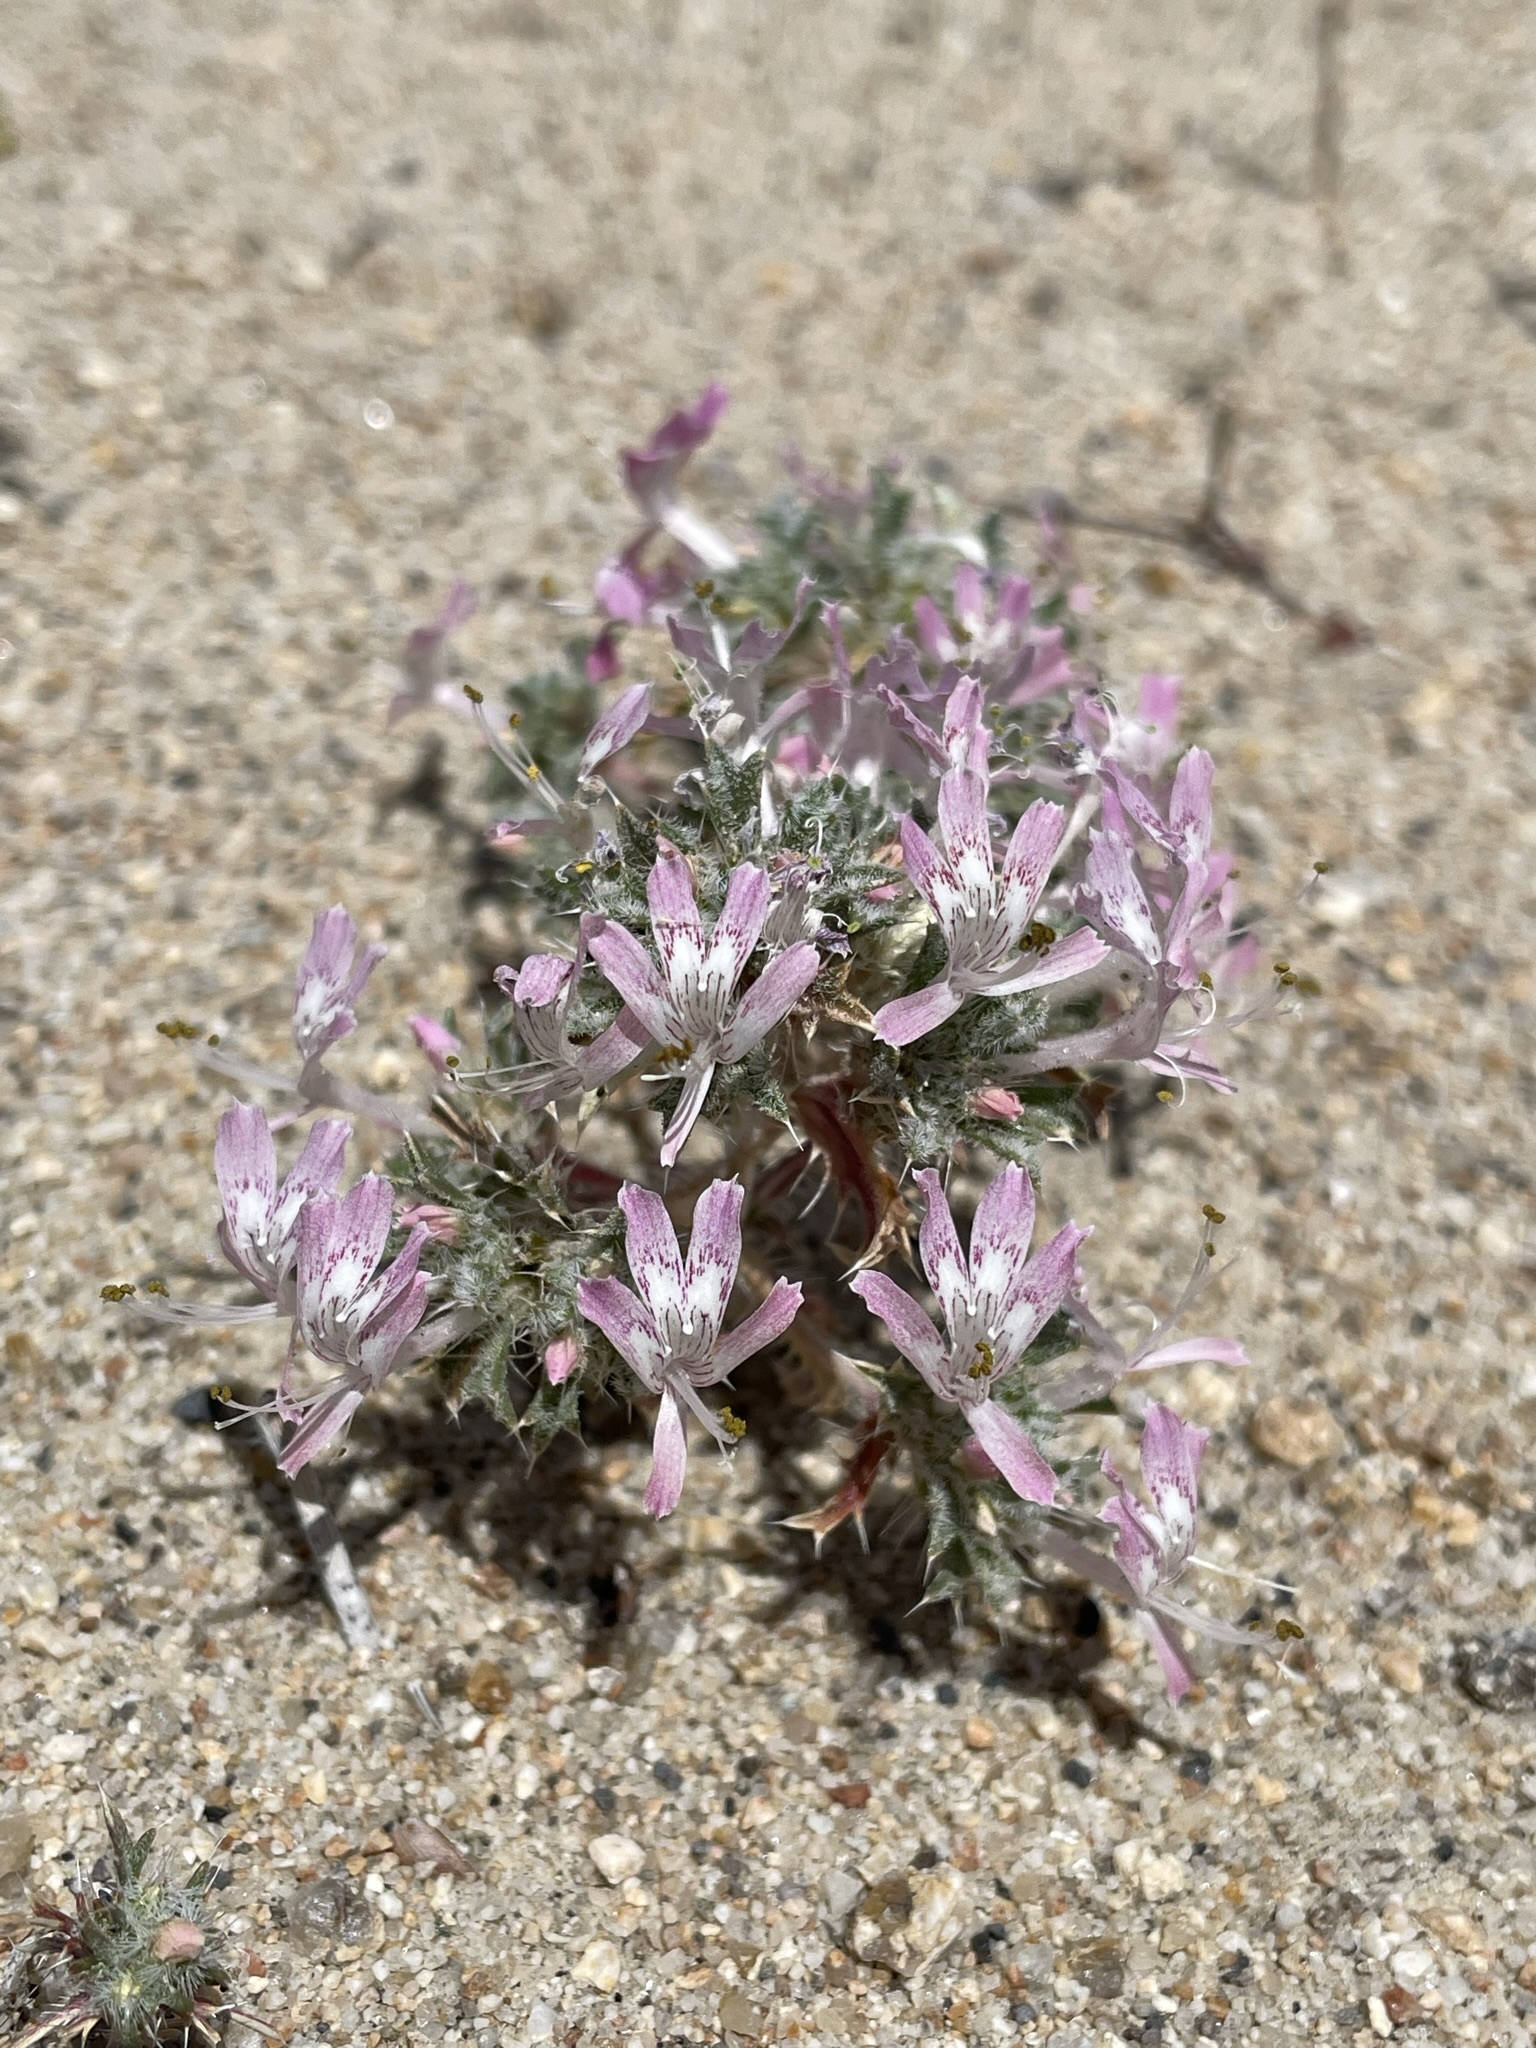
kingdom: Plantae
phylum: Tracheophyta
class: Magnoliopsida
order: Ericales
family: Polemoniaceae
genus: Loeseliastrum
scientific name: Loeseliastrum matthewsii
